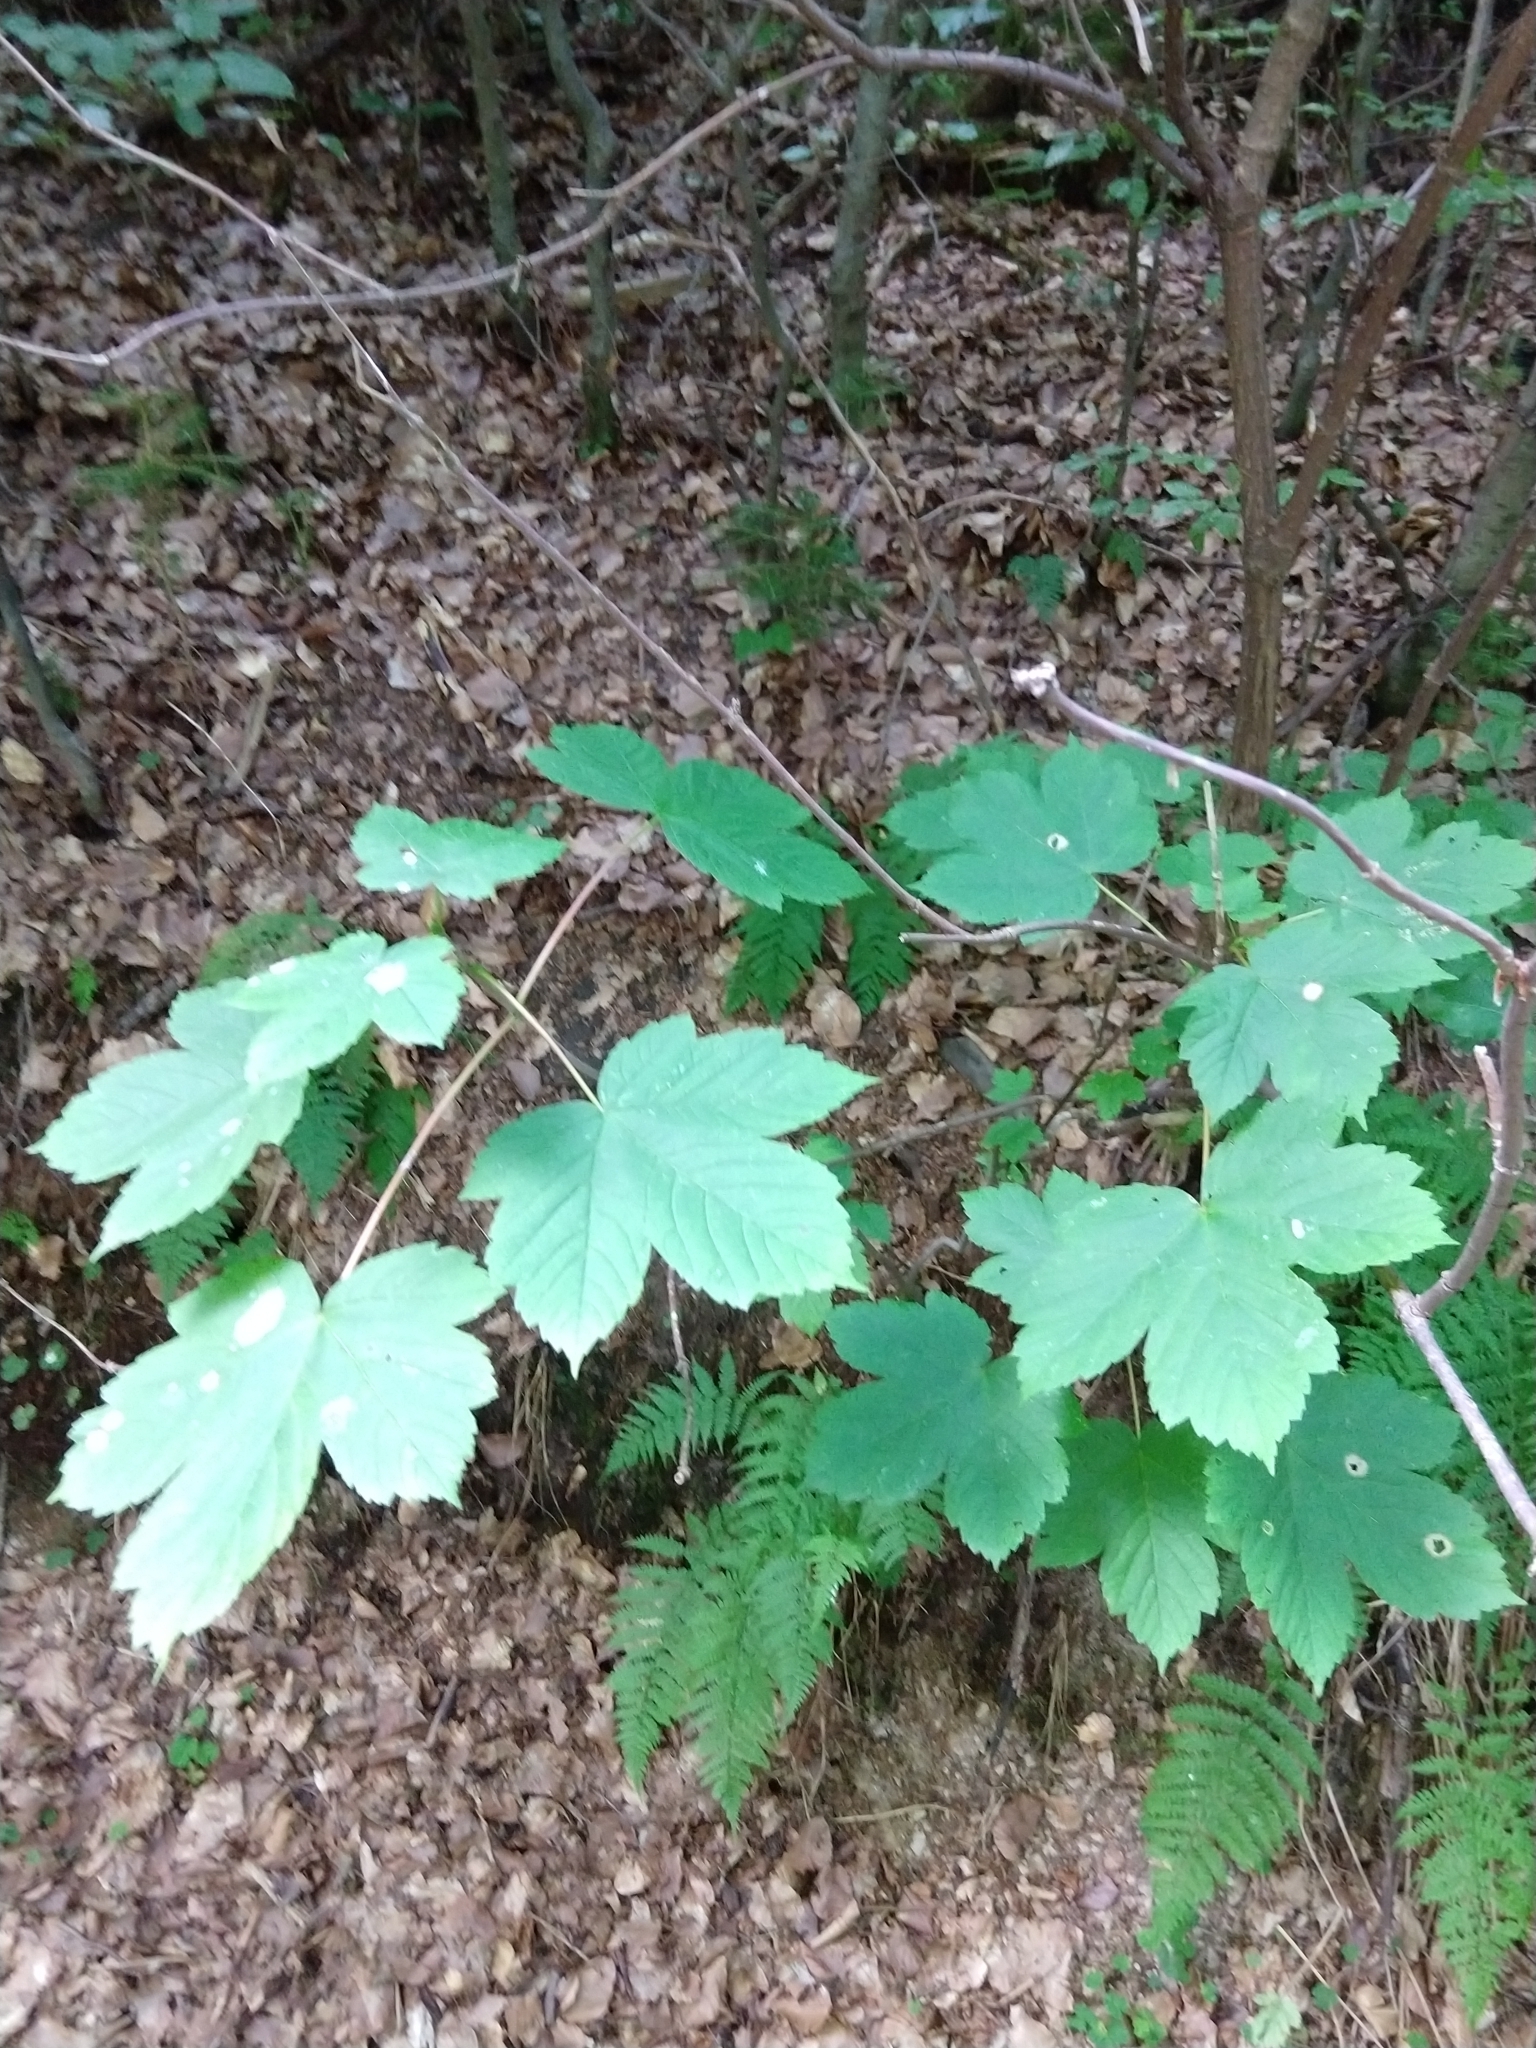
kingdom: Plantae
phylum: Tracheophyta
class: Magnoliopsida
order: Sapindales
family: Sapindaceae
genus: Acer
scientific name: Acer pseudoplatanus
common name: Sycamore
